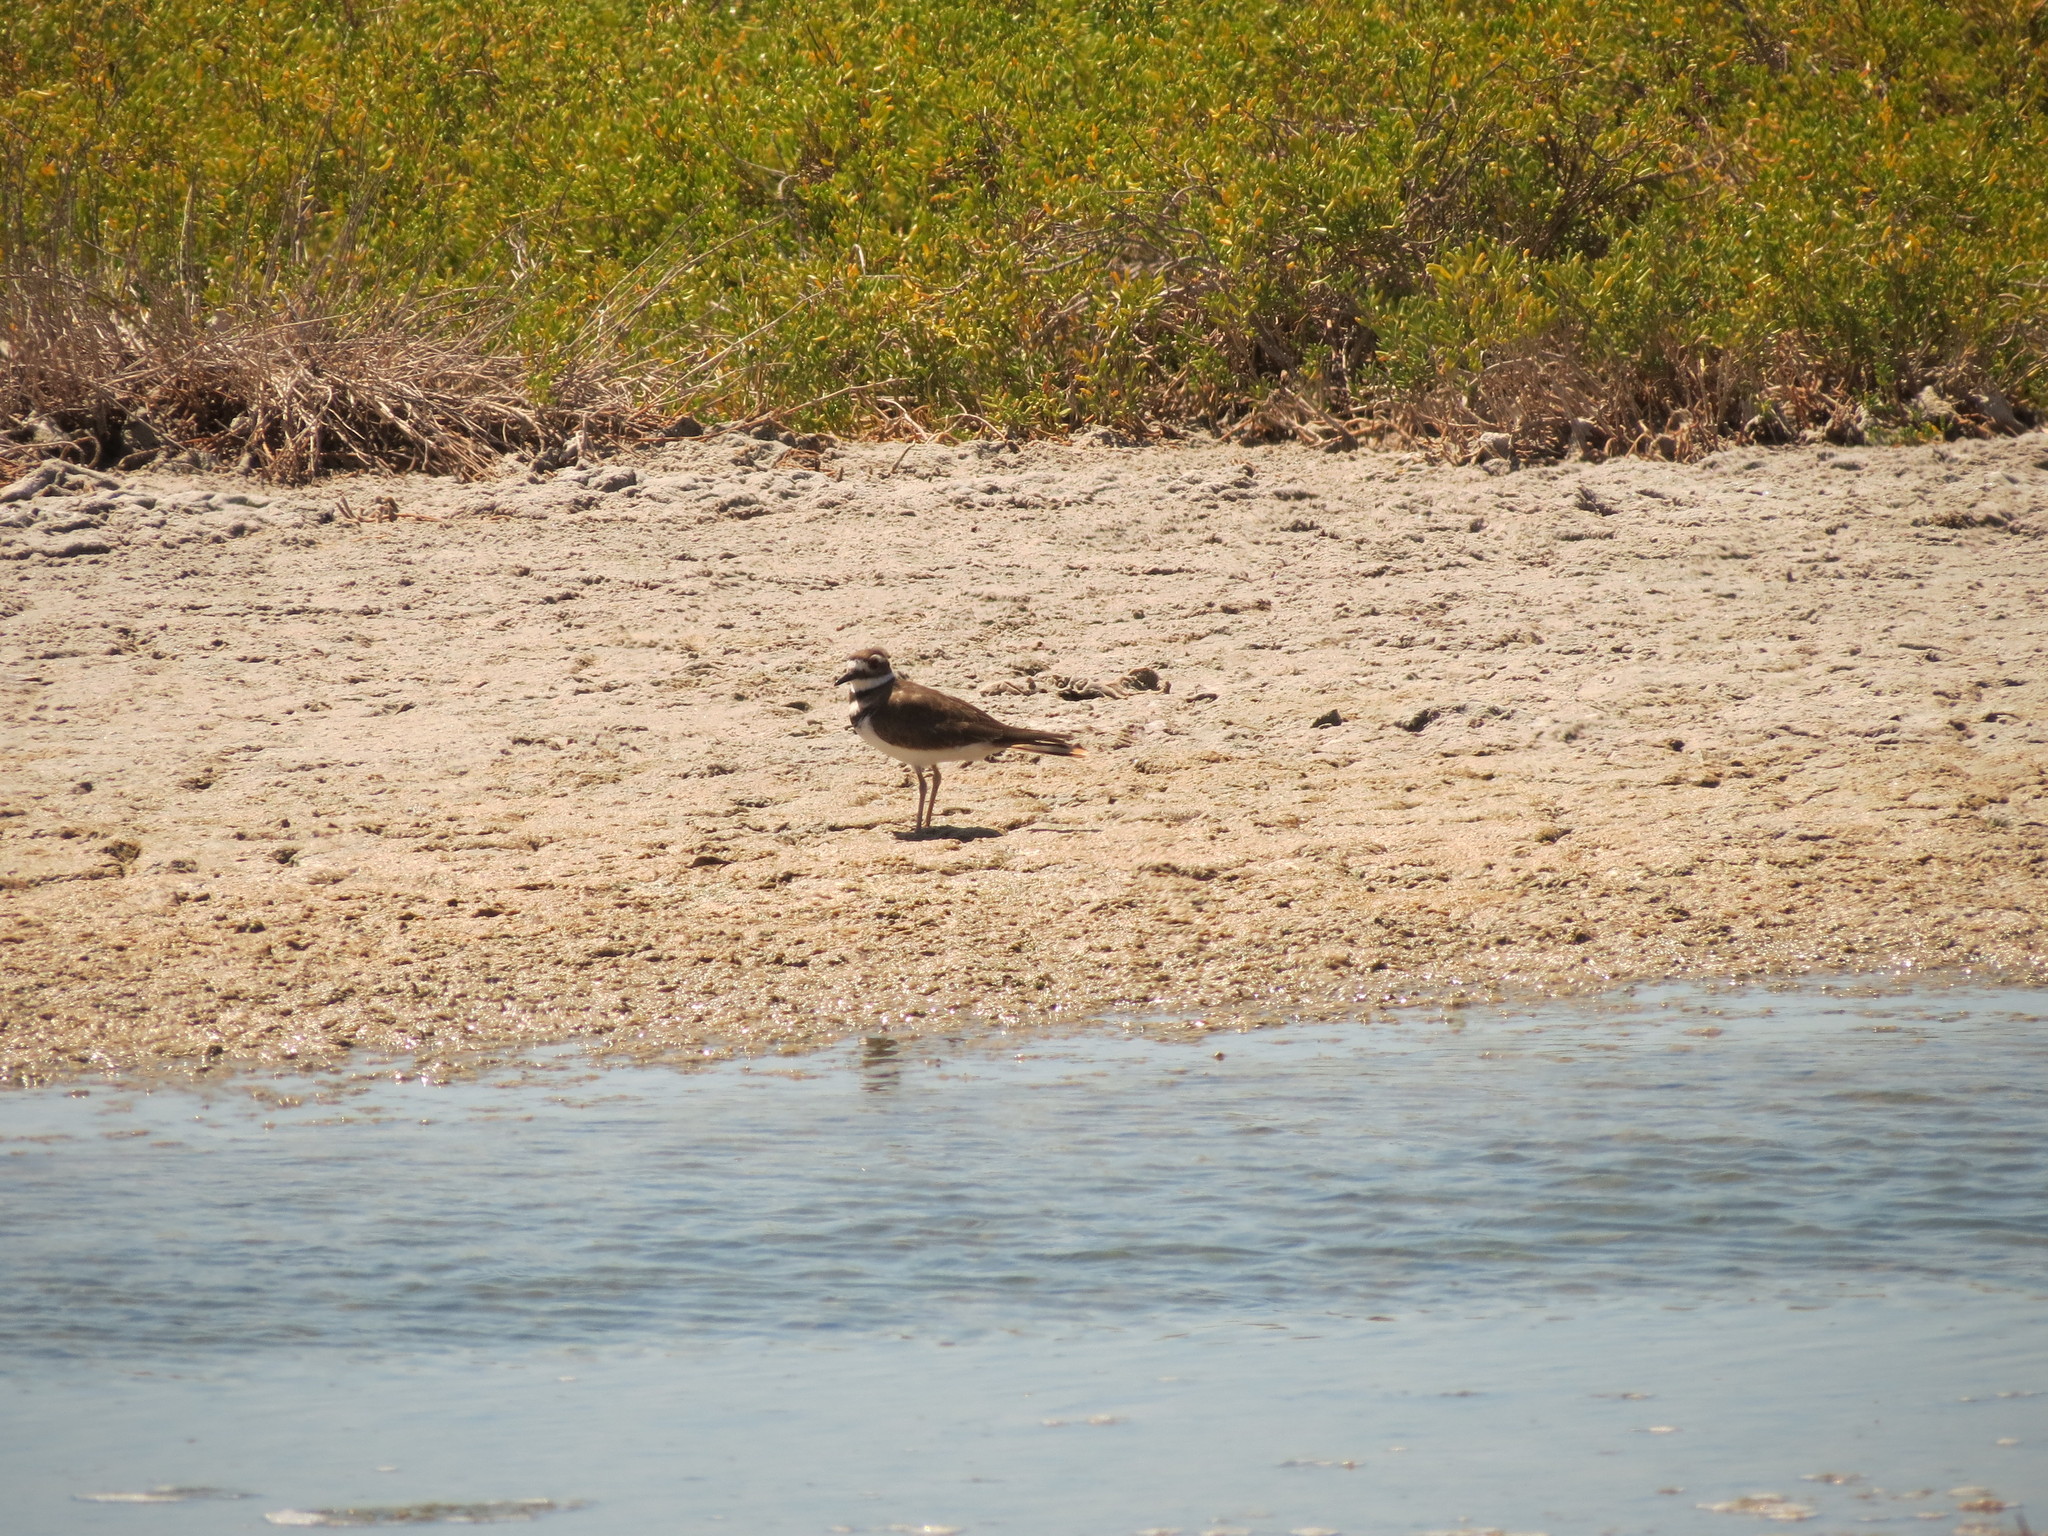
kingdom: Animalia
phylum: Chordata
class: Aves
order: Charadriiformes
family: Charadriidae
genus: Charadrius
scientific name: Charadrius vociferus
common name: Killdeer
